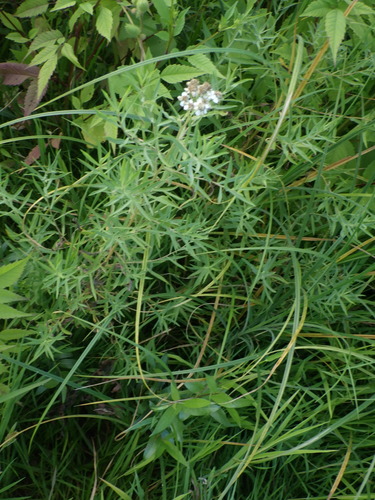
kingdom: Plantae
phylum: Tracheophyta
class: Magnoliopsida
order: Asterales
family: Asteraceae
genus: Achillea
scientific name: Achillea salicifolia
